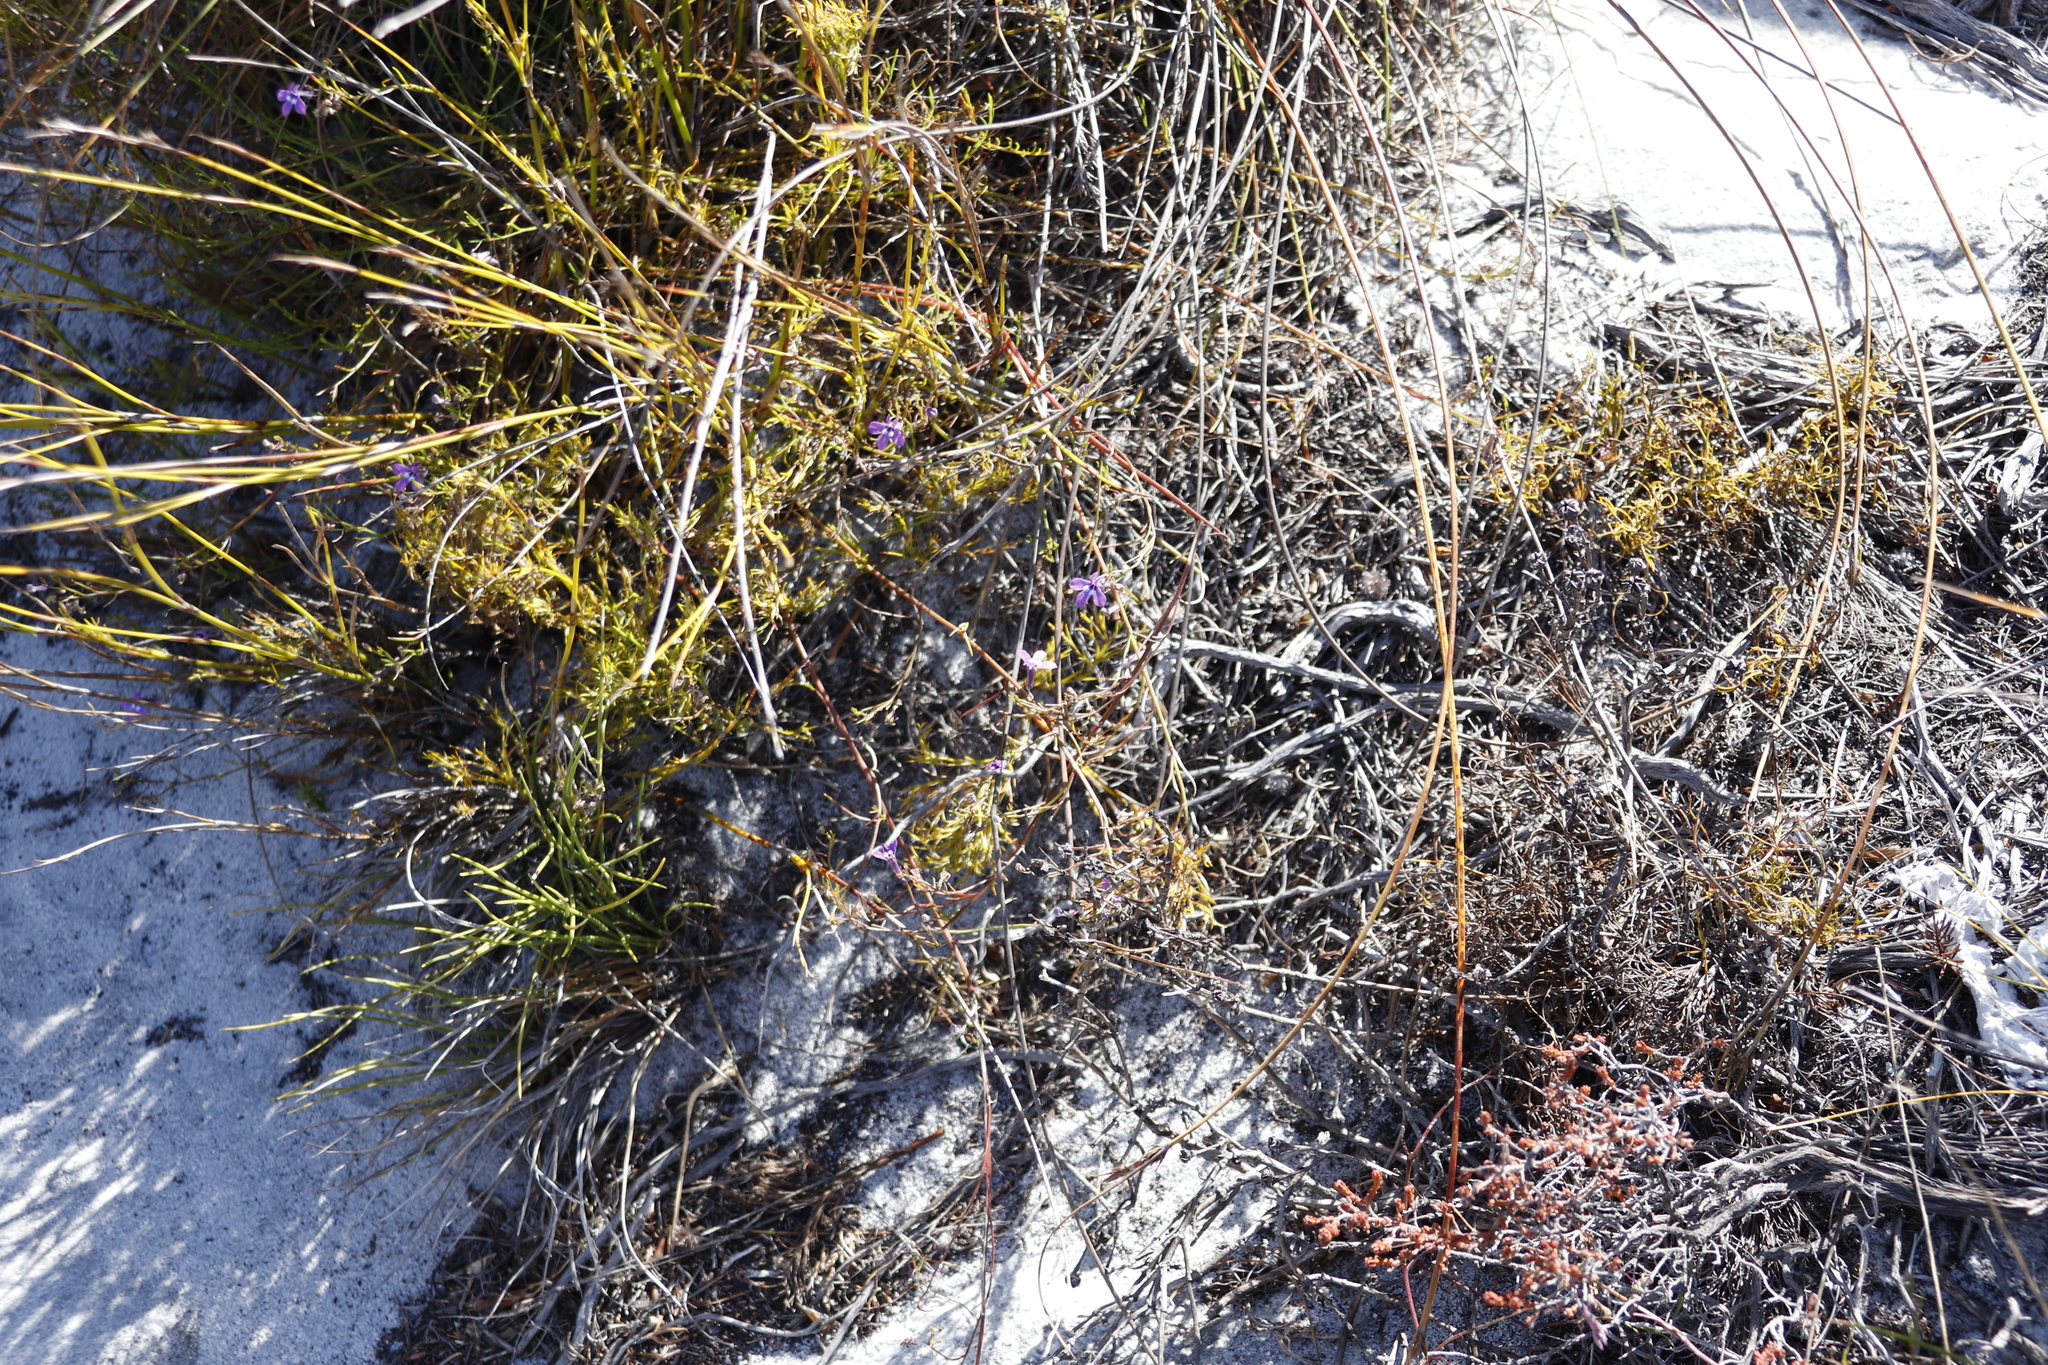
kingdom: Plantae
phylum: Tracheophyta
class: Magnoliopsida
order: Asterales
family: Campanulaceae
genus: Lobelia
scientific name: Lobelia setacea
